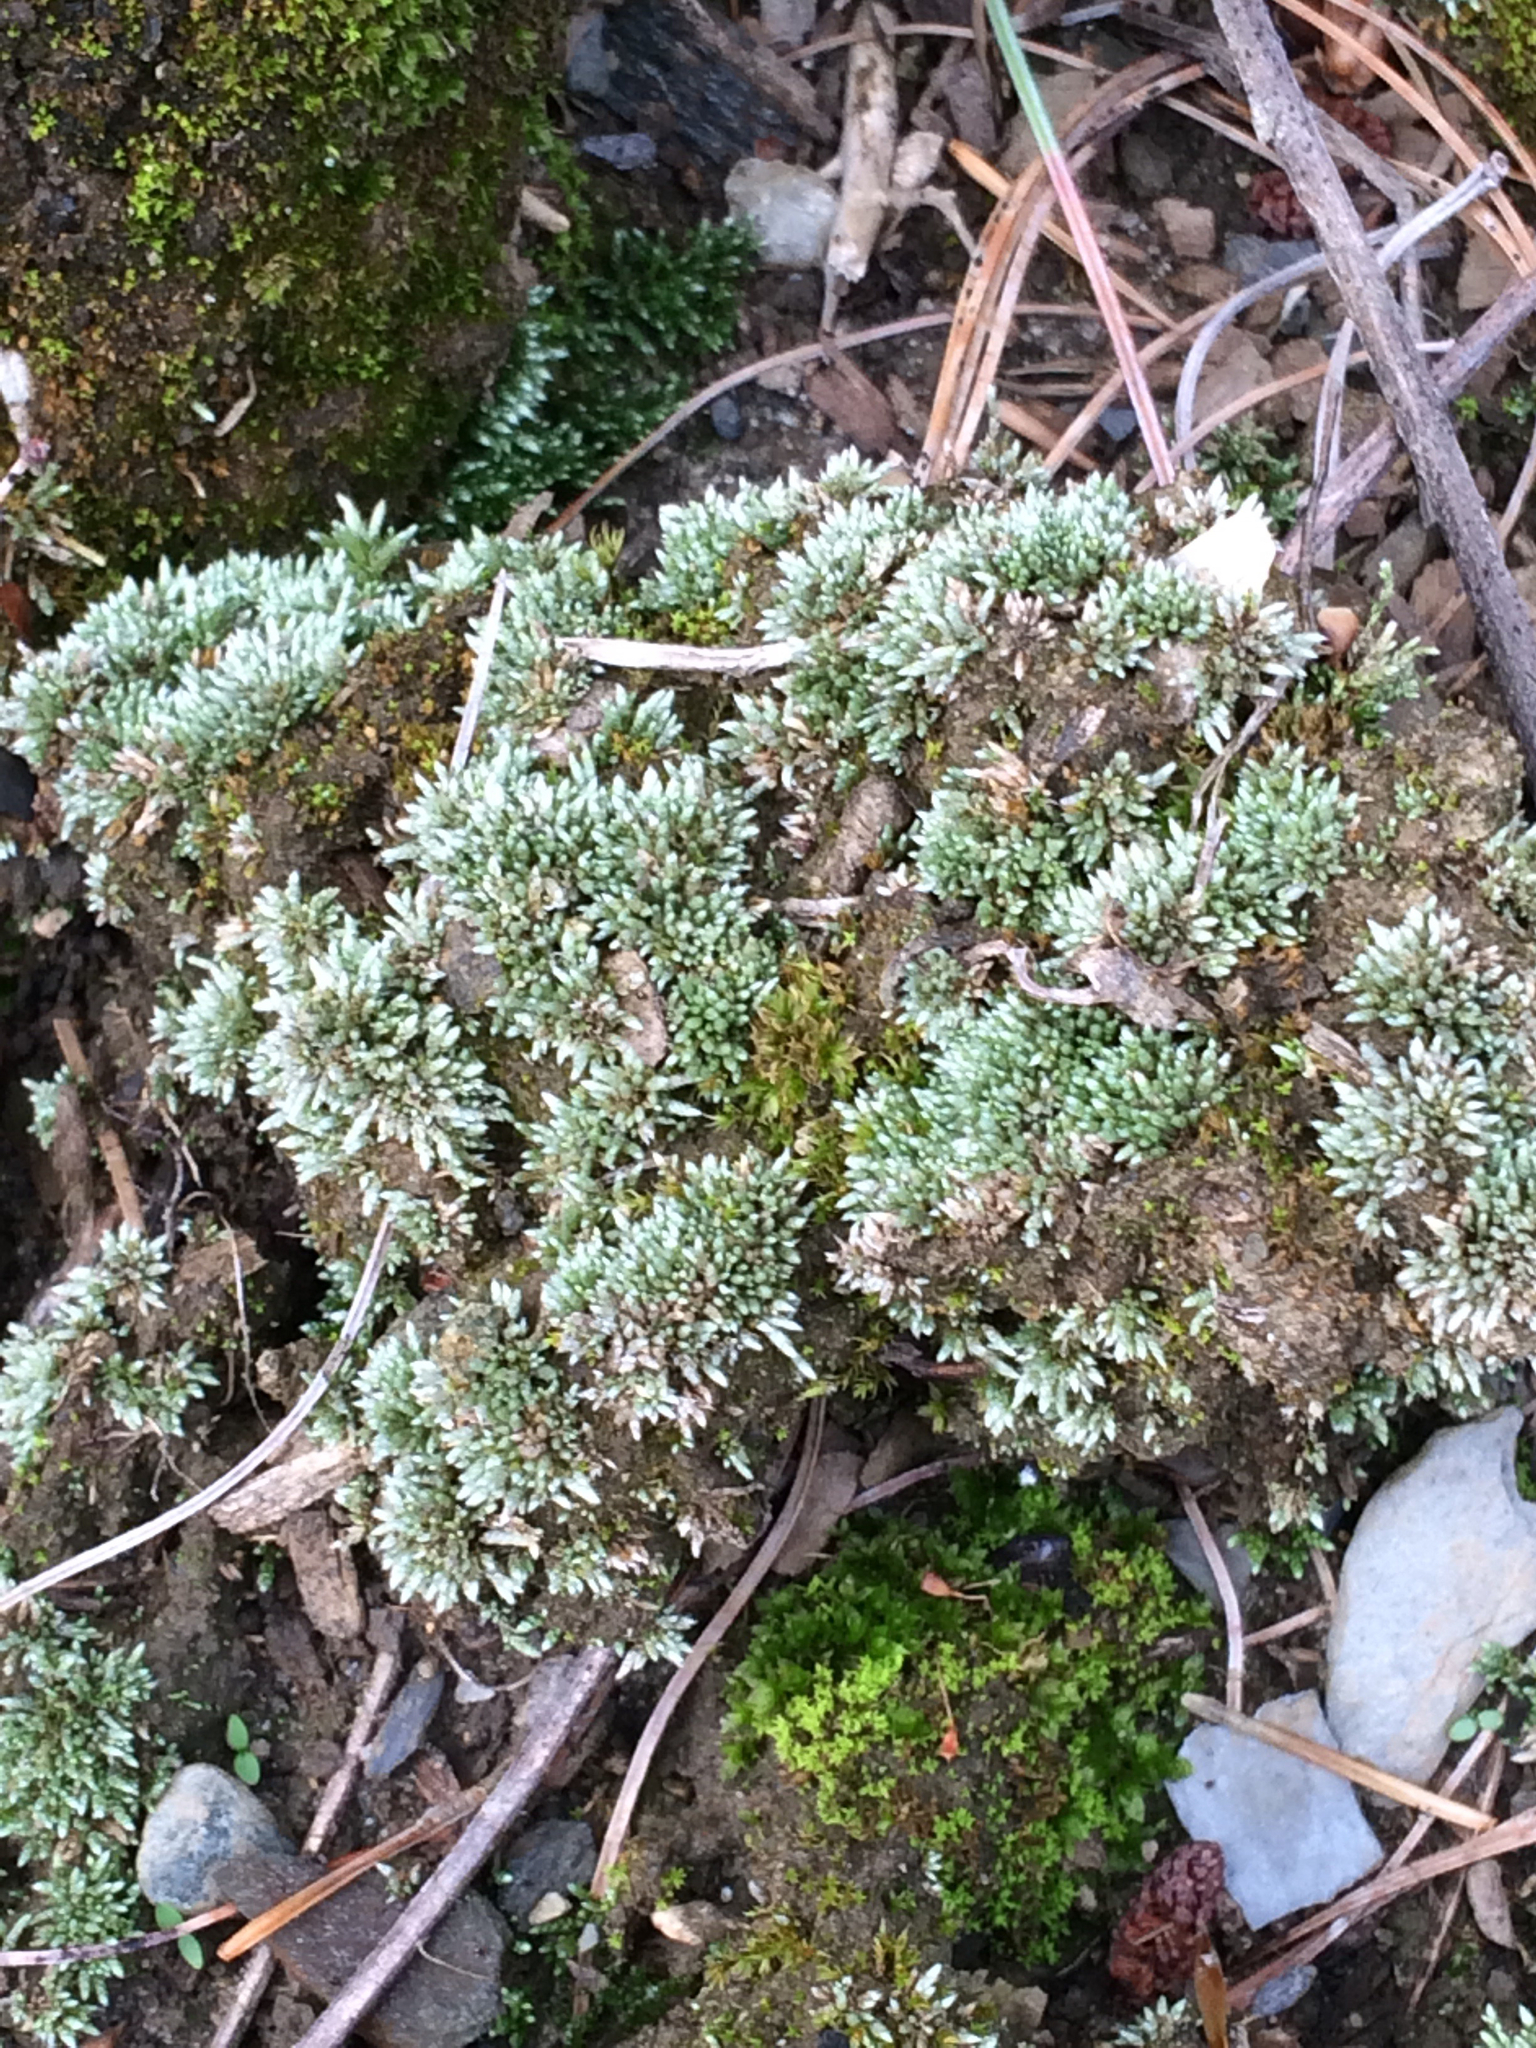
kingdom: Plantae
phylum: Bryophyta
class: Bryopsida
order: Bryales
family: Bryaceae
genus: Bryum
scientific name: Bryum argenteum
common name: Silver-moss
